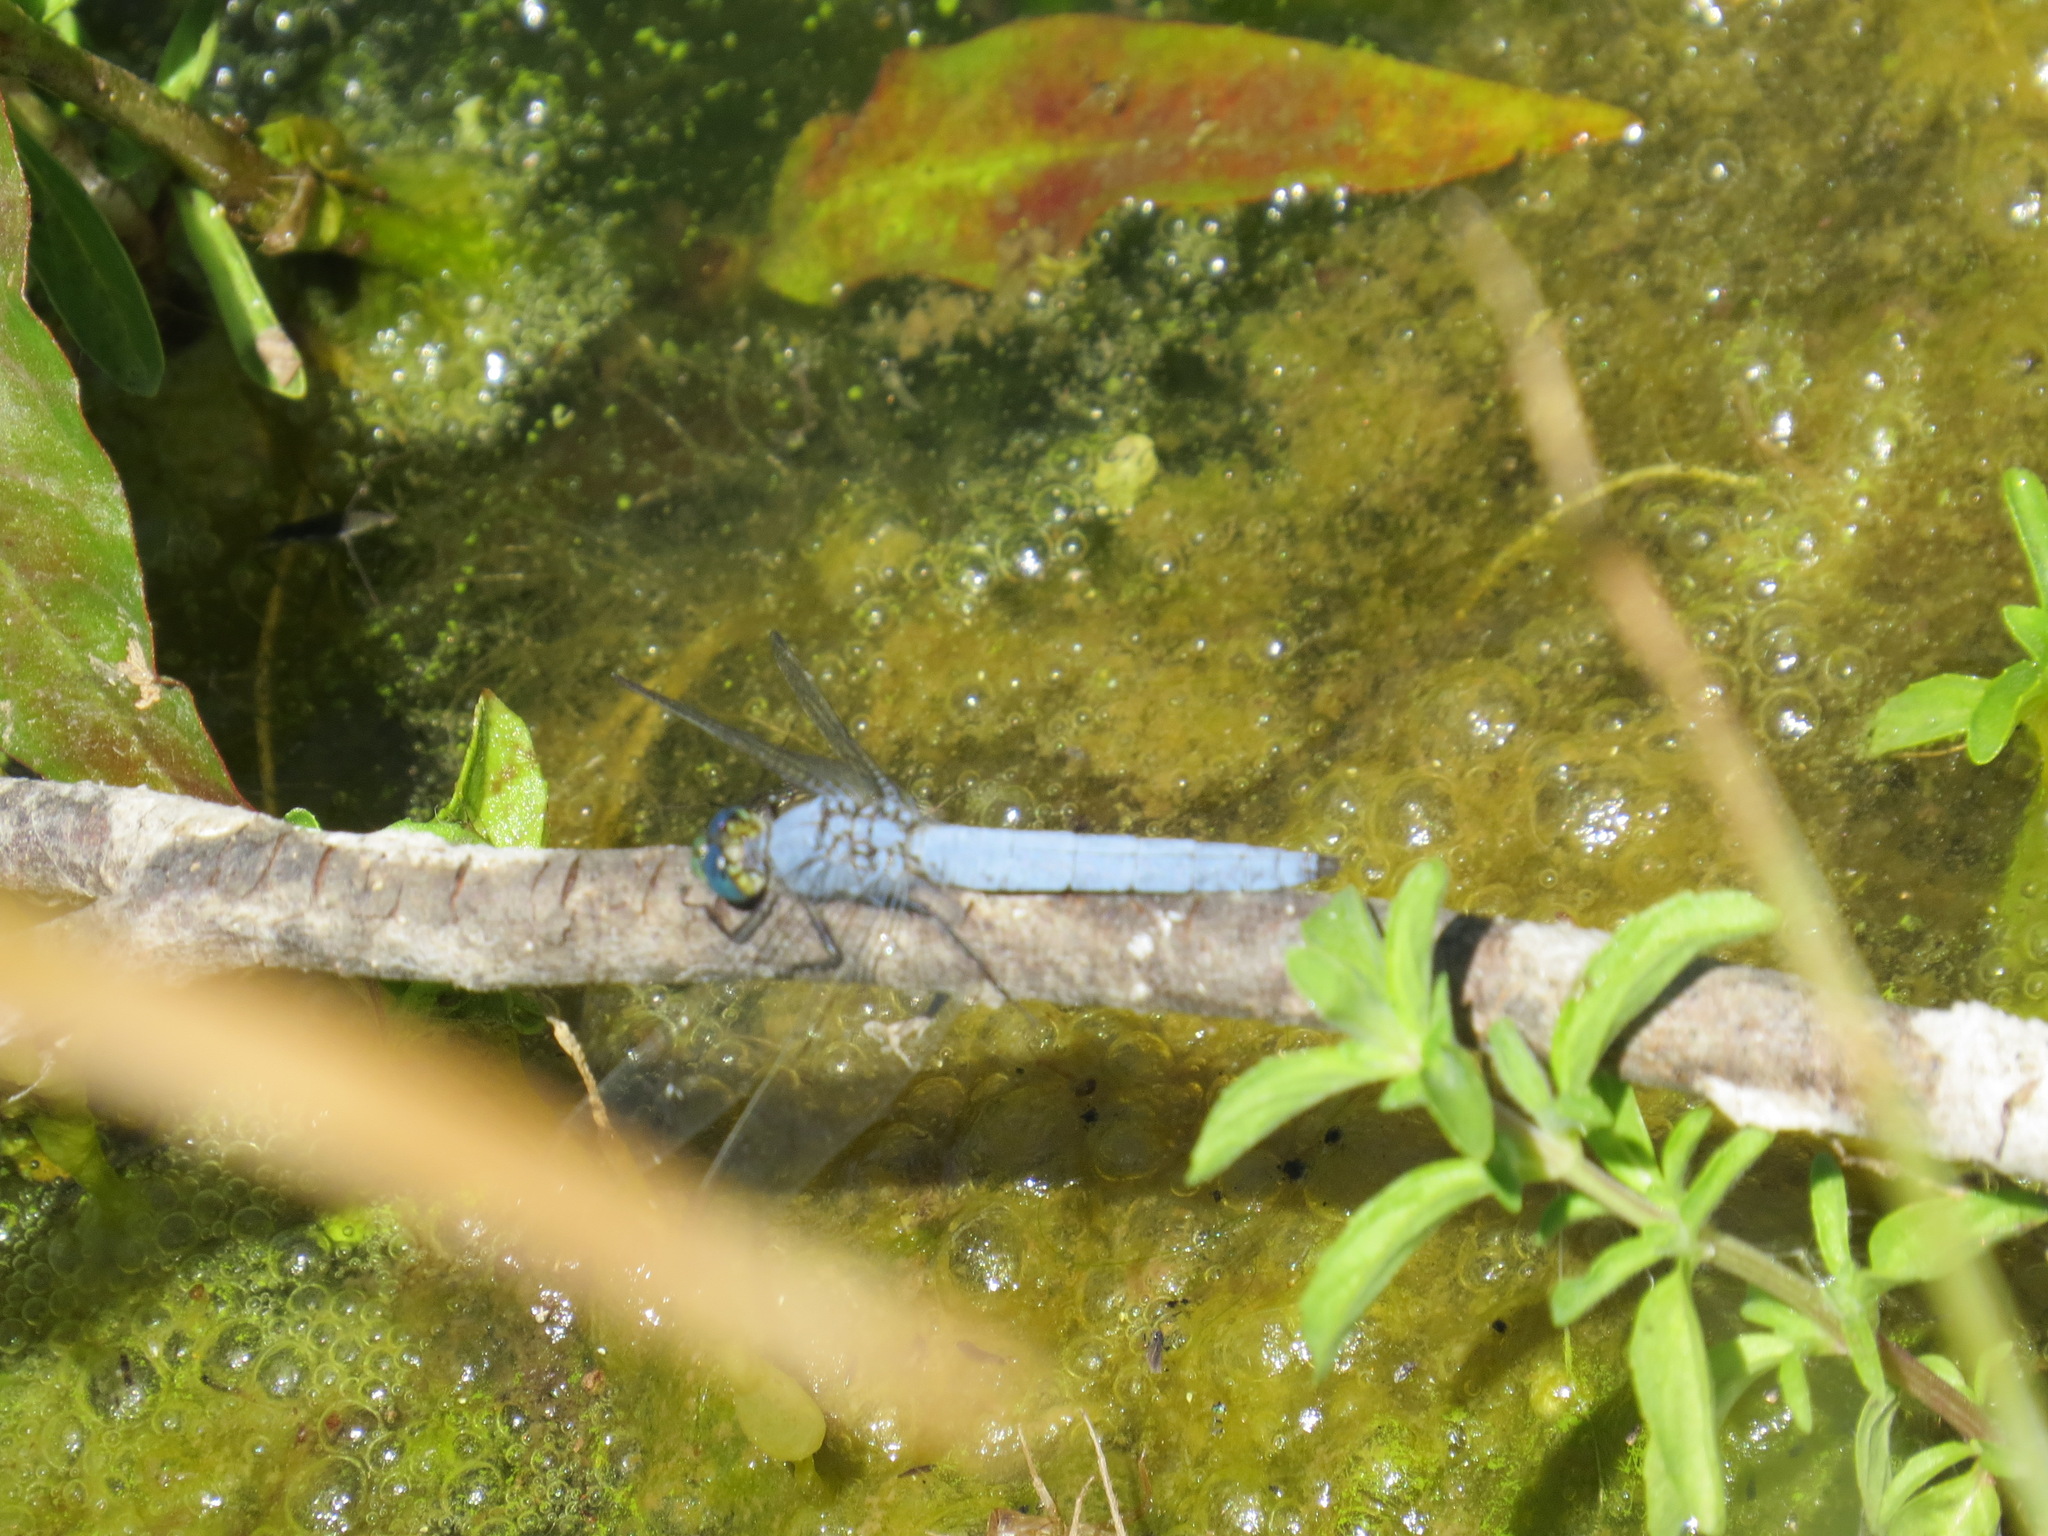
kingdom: Animalia
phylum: Arthropoda
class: Insecta
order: Odonata
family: Libellulidae
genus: Erythemis
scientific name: Erythemis collocata
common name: Western pondhawk
